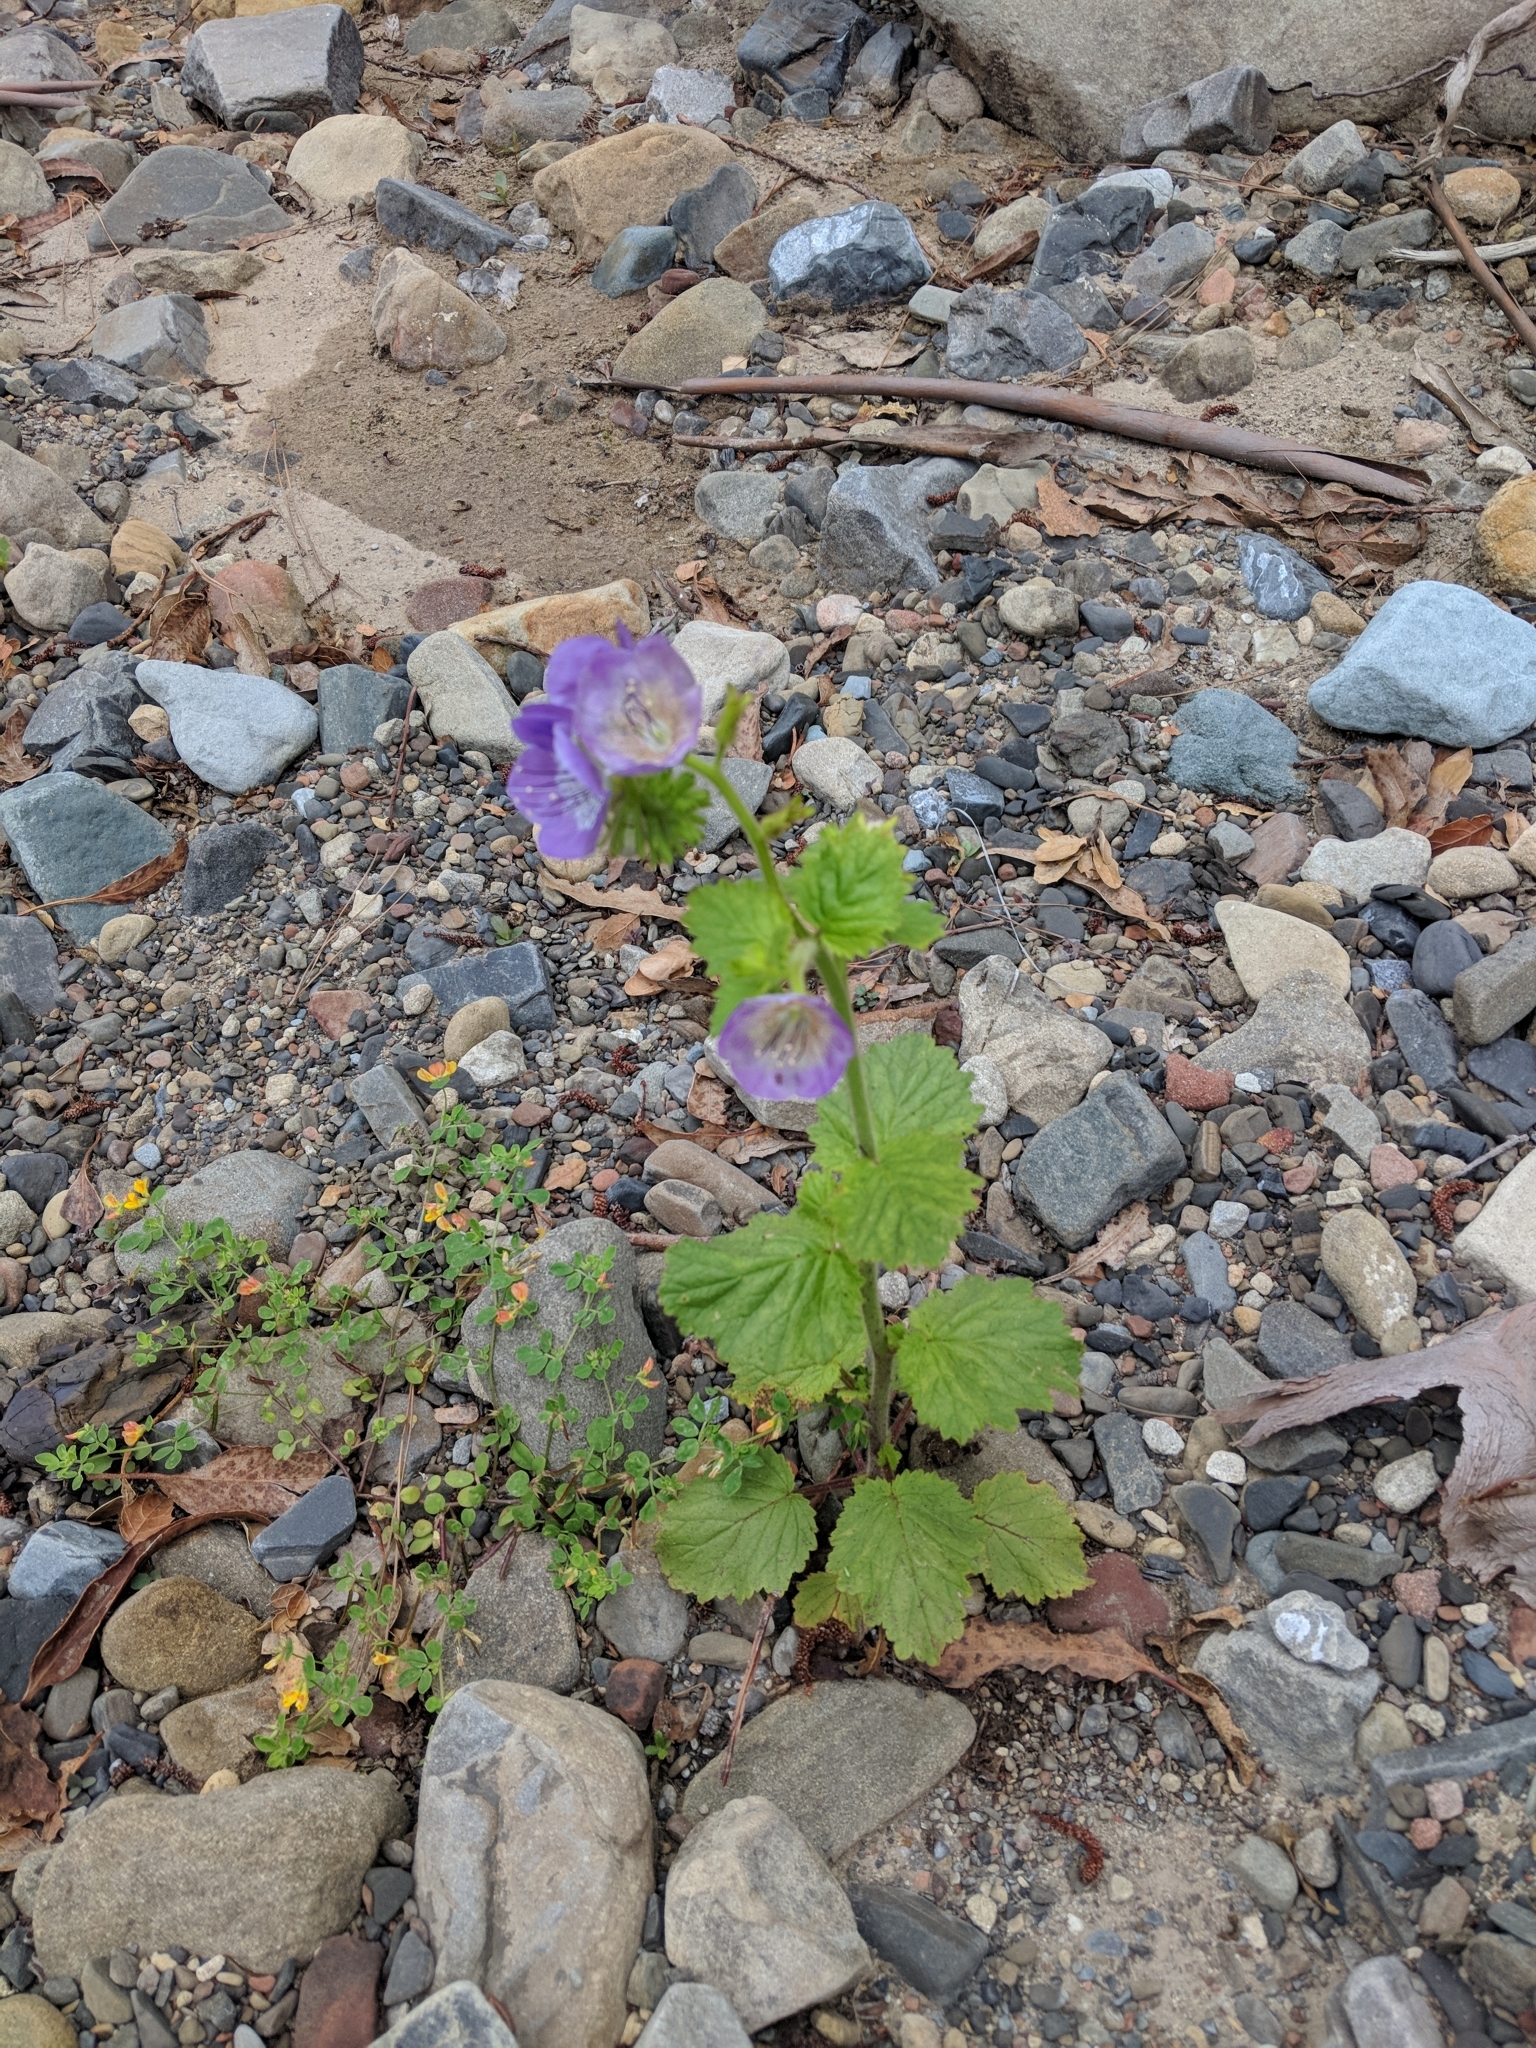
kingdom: Plantae
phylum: Tracheophyta
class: Magnoliopsida
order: Boraginales
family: Hydrophyllaceae
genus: Phacelia
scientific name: Phacelia grandiflora
